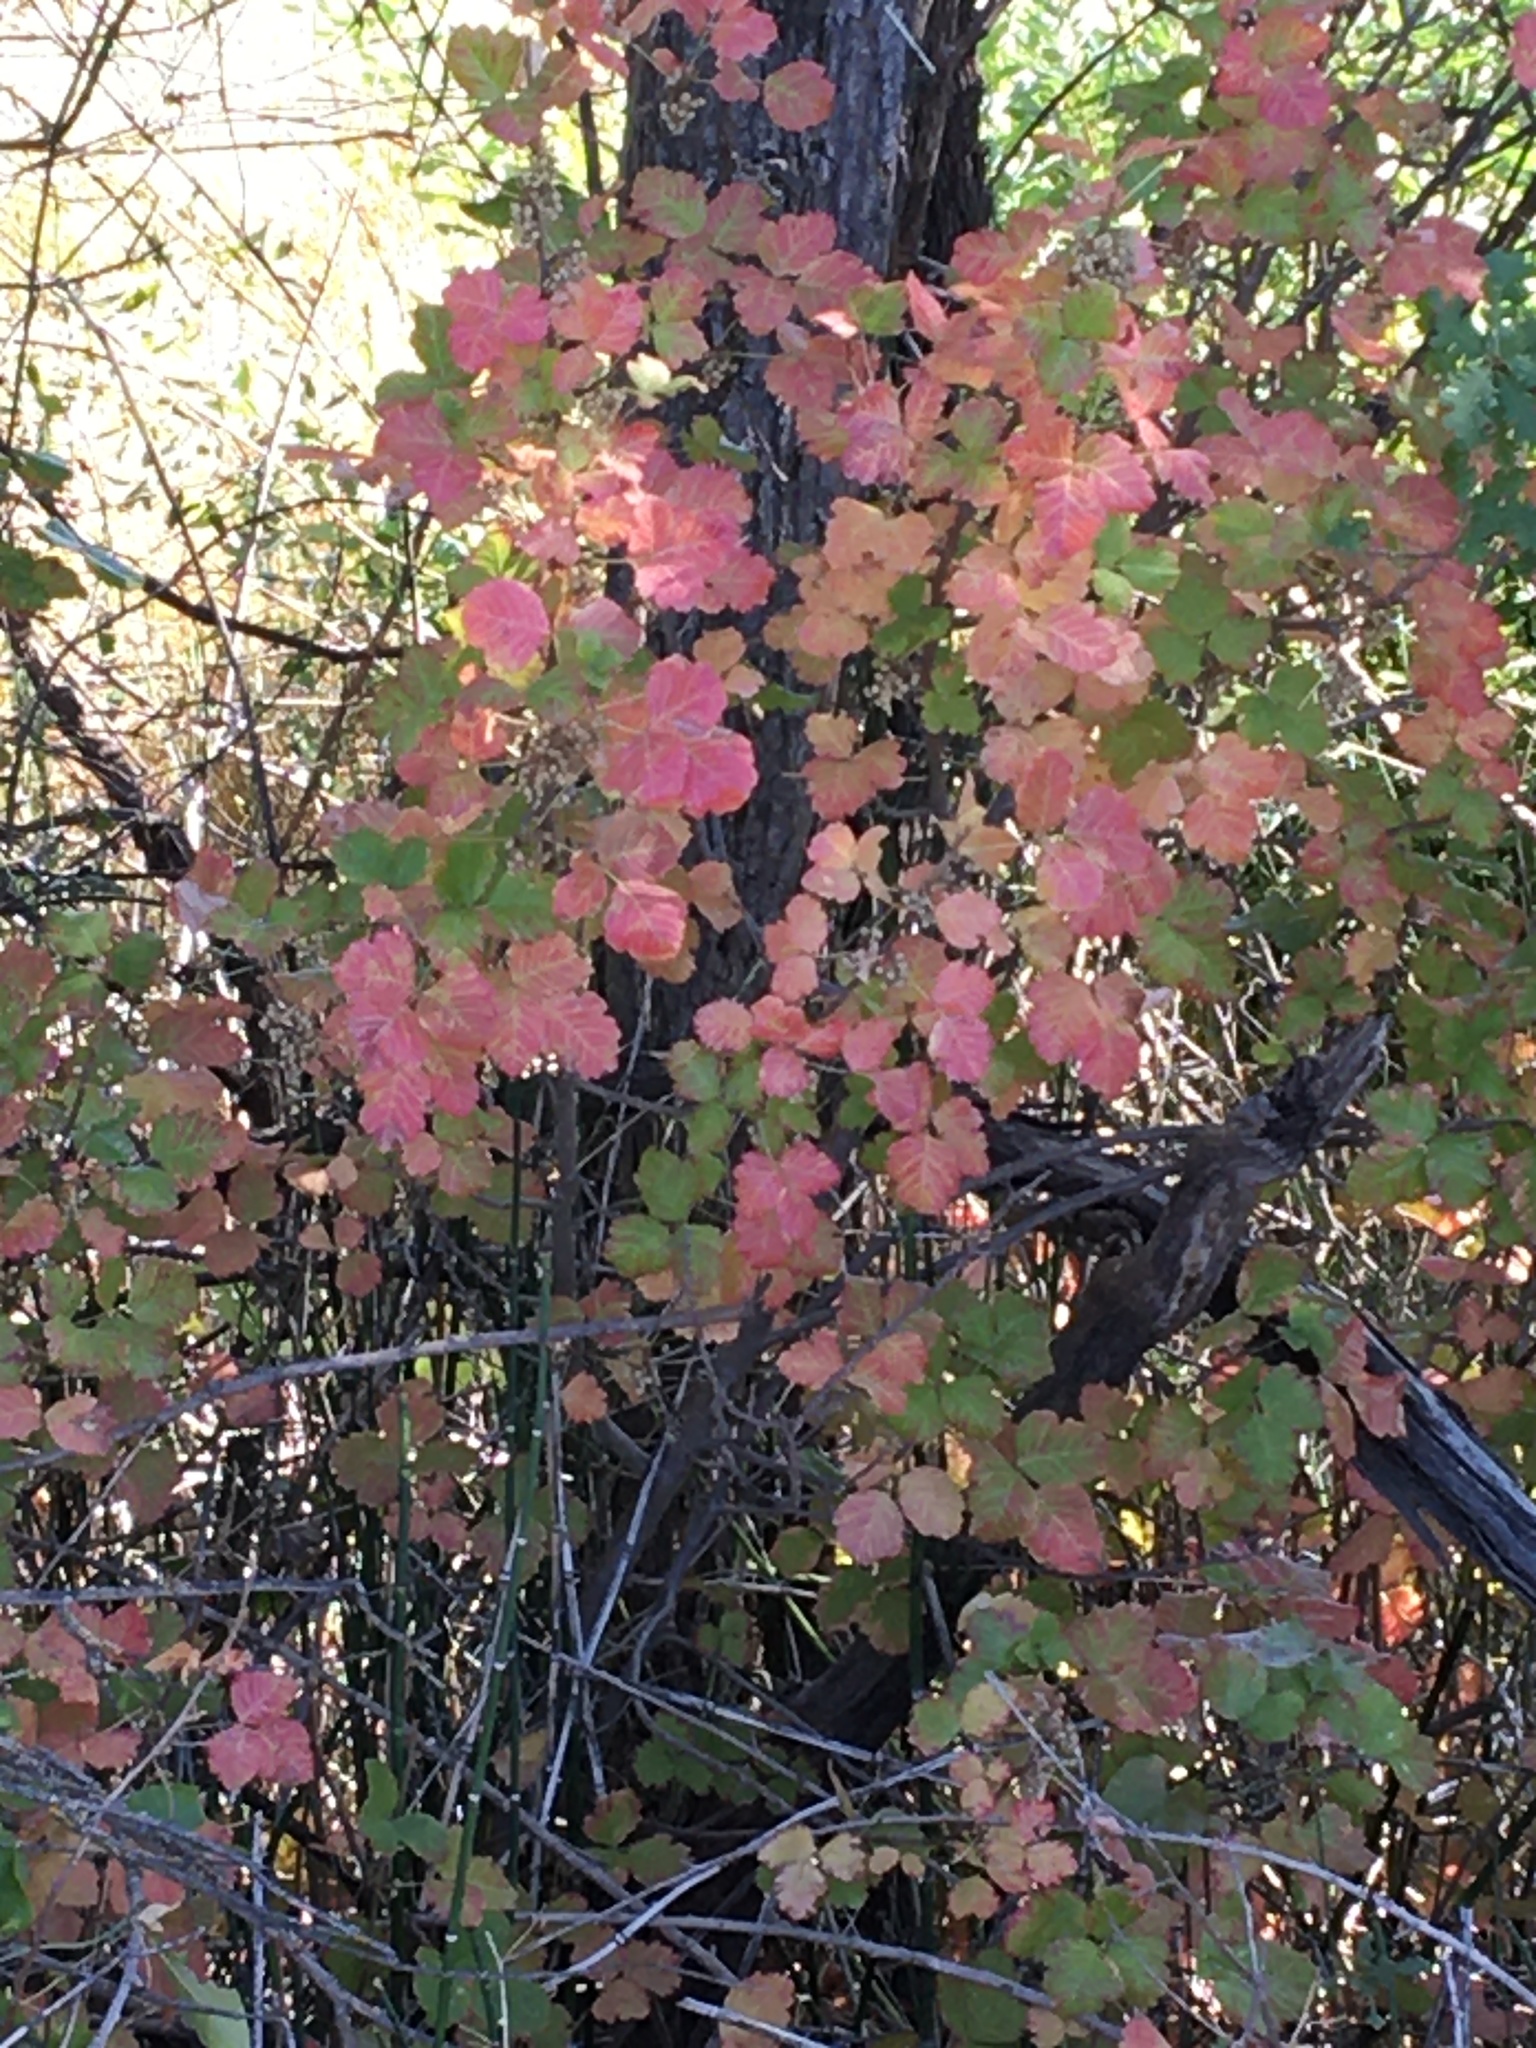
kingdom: Plantae
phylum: Tracheophyta
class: Magnoliopsida
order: Sapindales
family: Anacardiaceae
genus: Toxicodendron
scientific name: Toxicodendron diversilobum
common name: Pacific poison-oak
